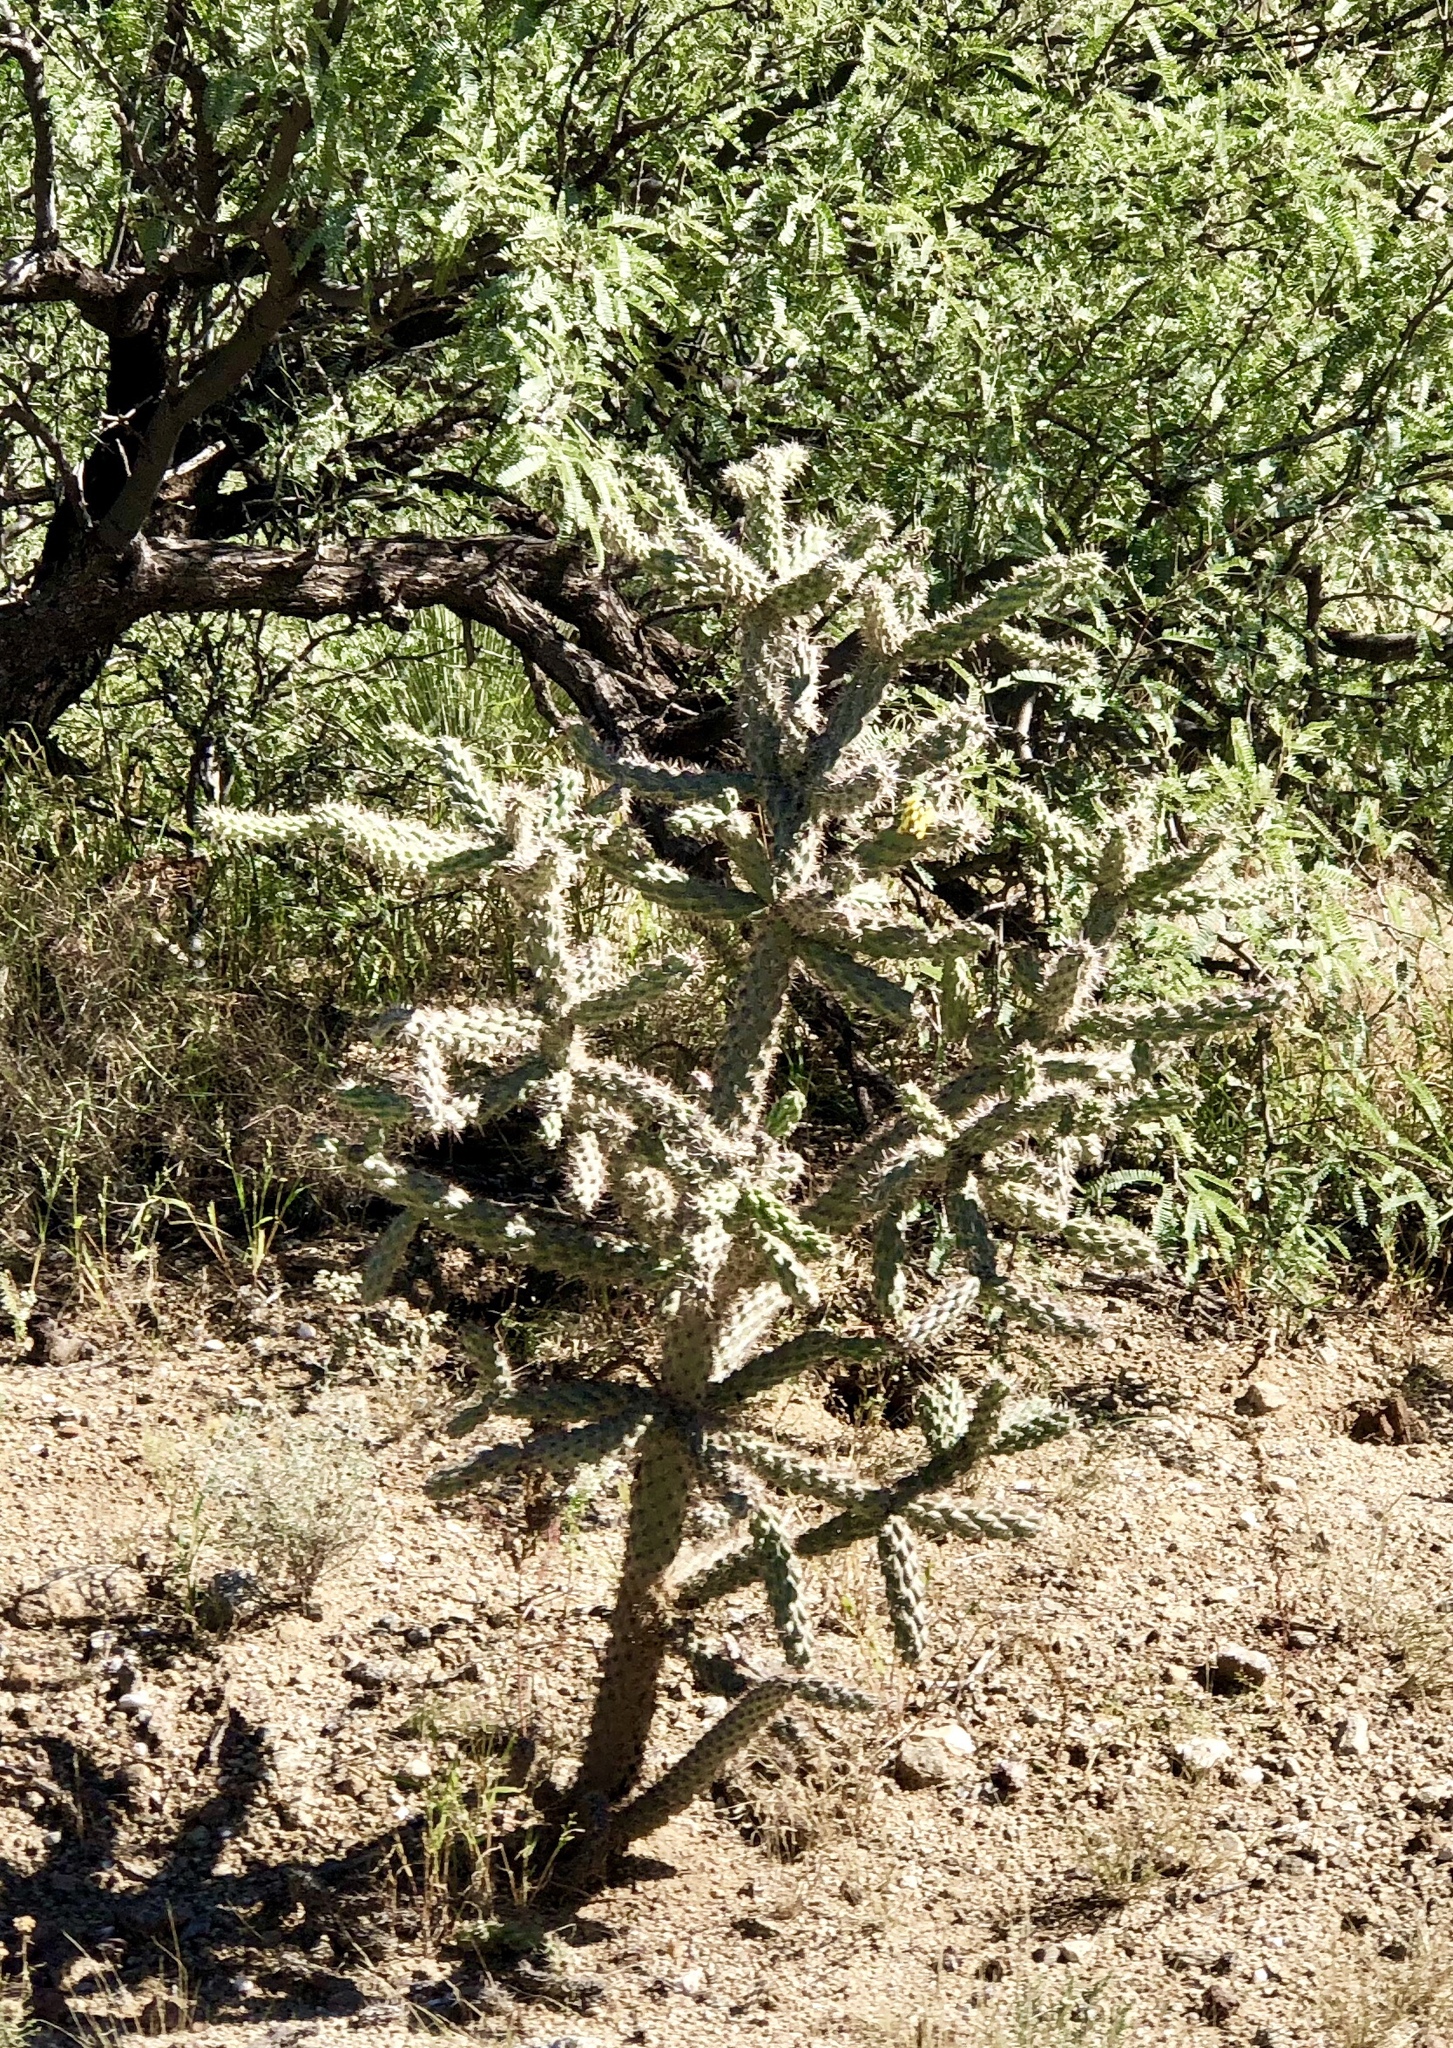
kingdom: Plantae
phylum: Tracheophyta
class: Magnoliopsida
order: Caryophyllales
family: Cactaceae
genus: Cylindropuntia
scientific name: Cylindropuntia imbricata
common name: Candelabrum cactus
